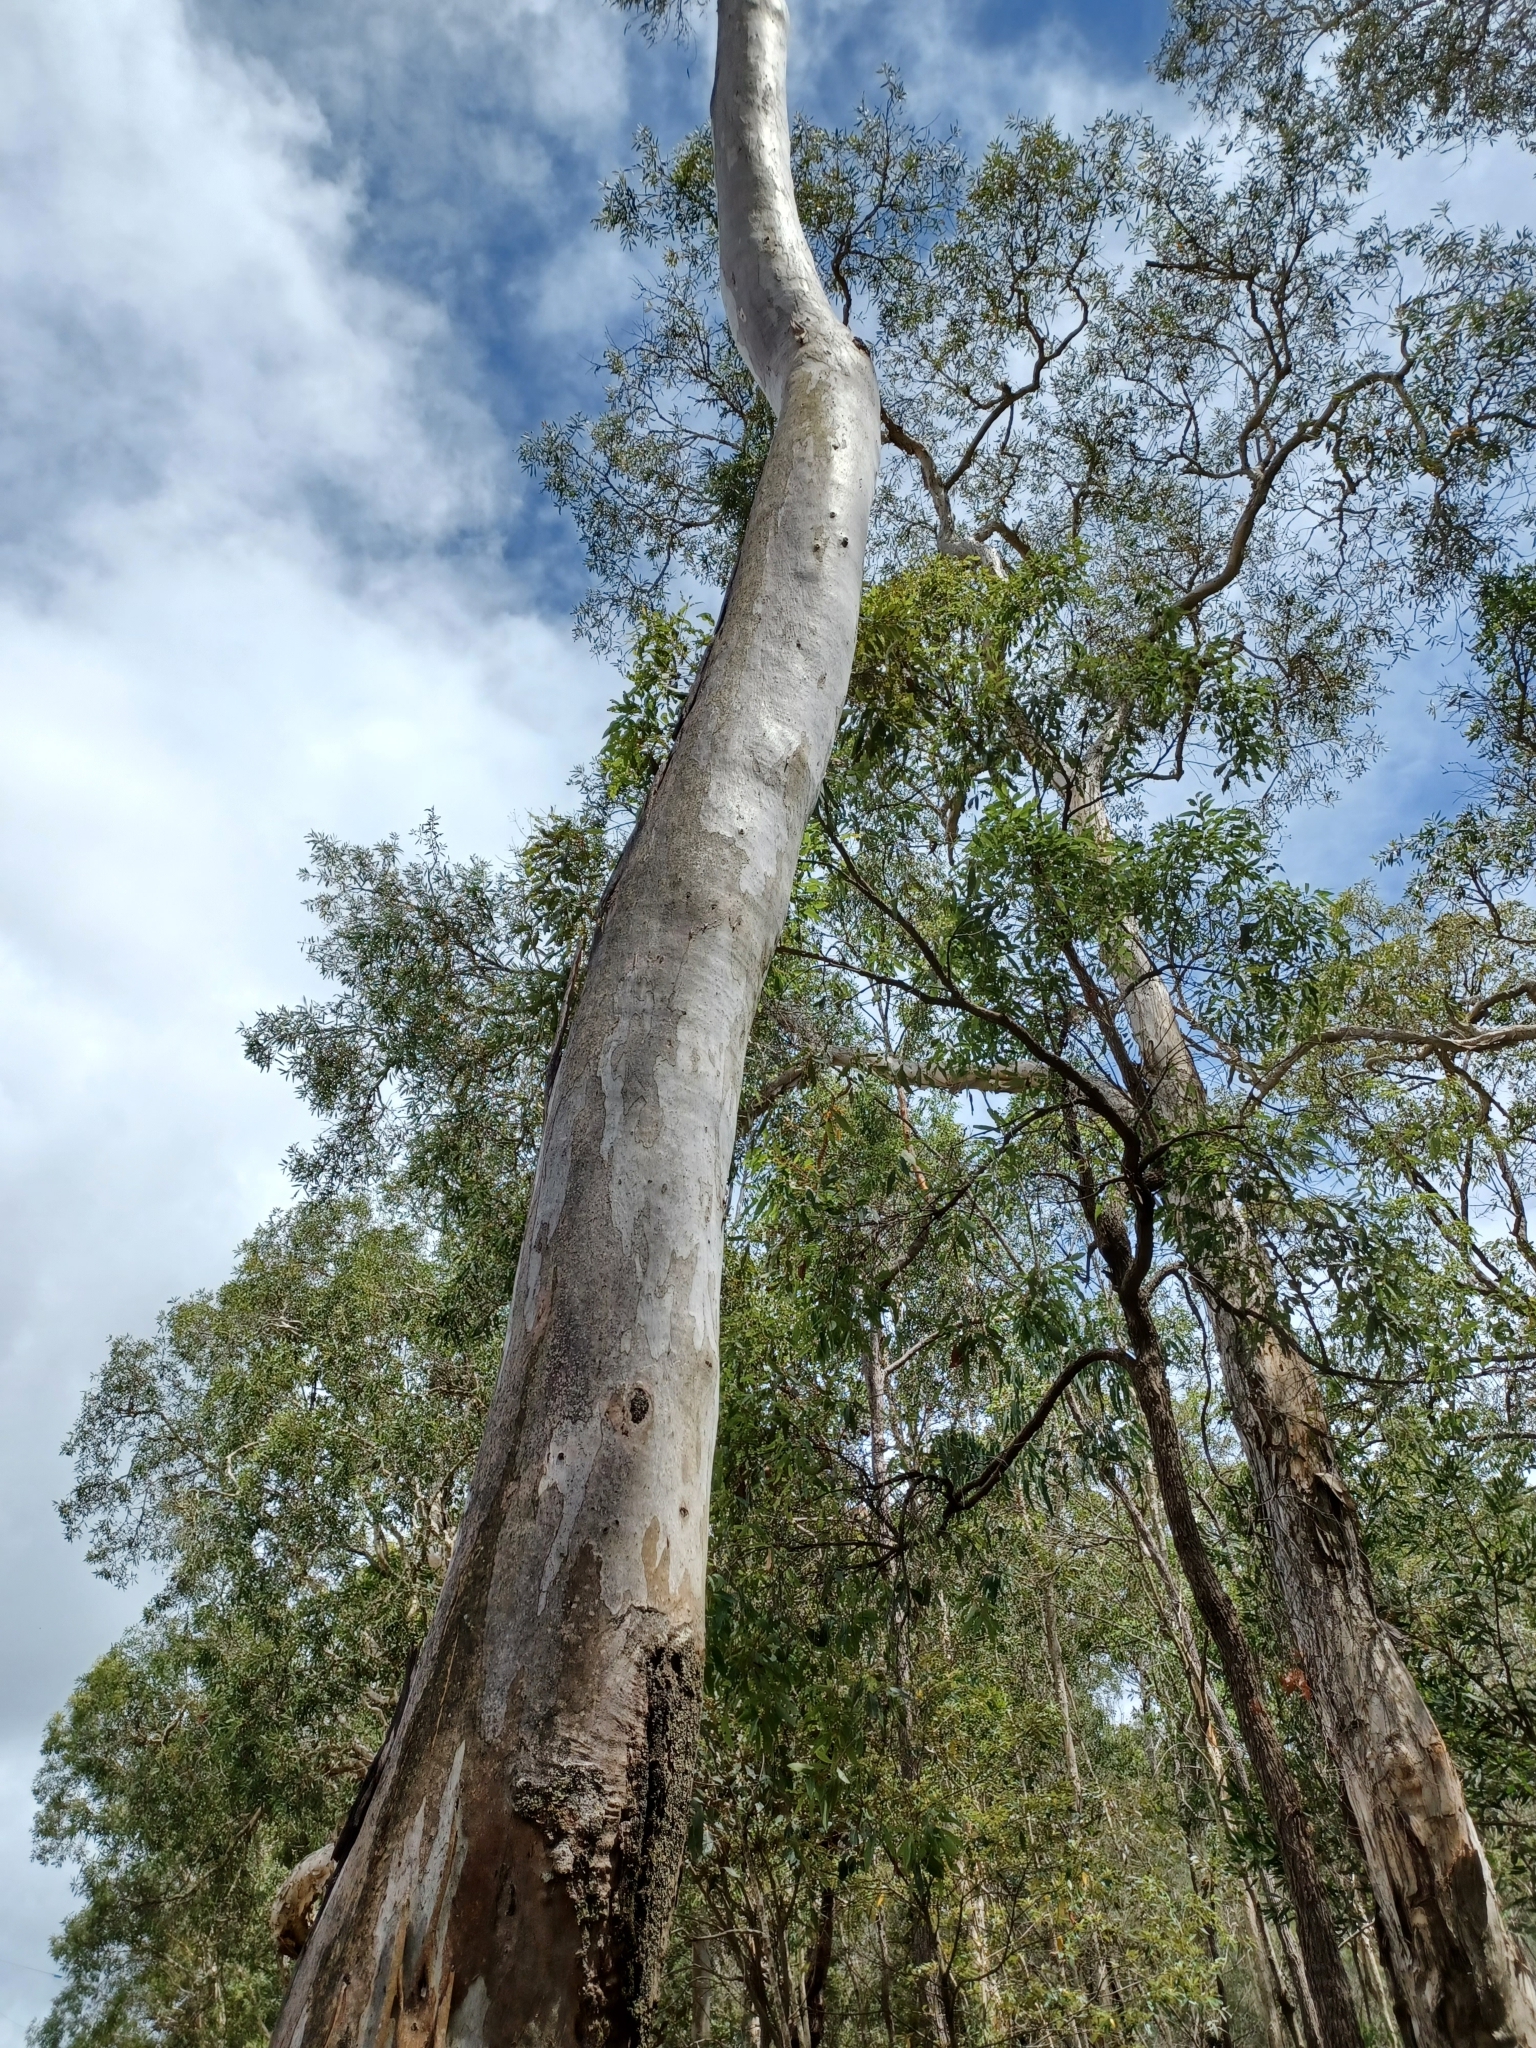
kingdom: Plantae
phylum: Tracheophyta
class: Magnoliopsida
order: Myrtales
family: Myrtaceae
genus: Eucalyptus
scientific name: Eucalyptus tereticornis
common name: Forest redgum
